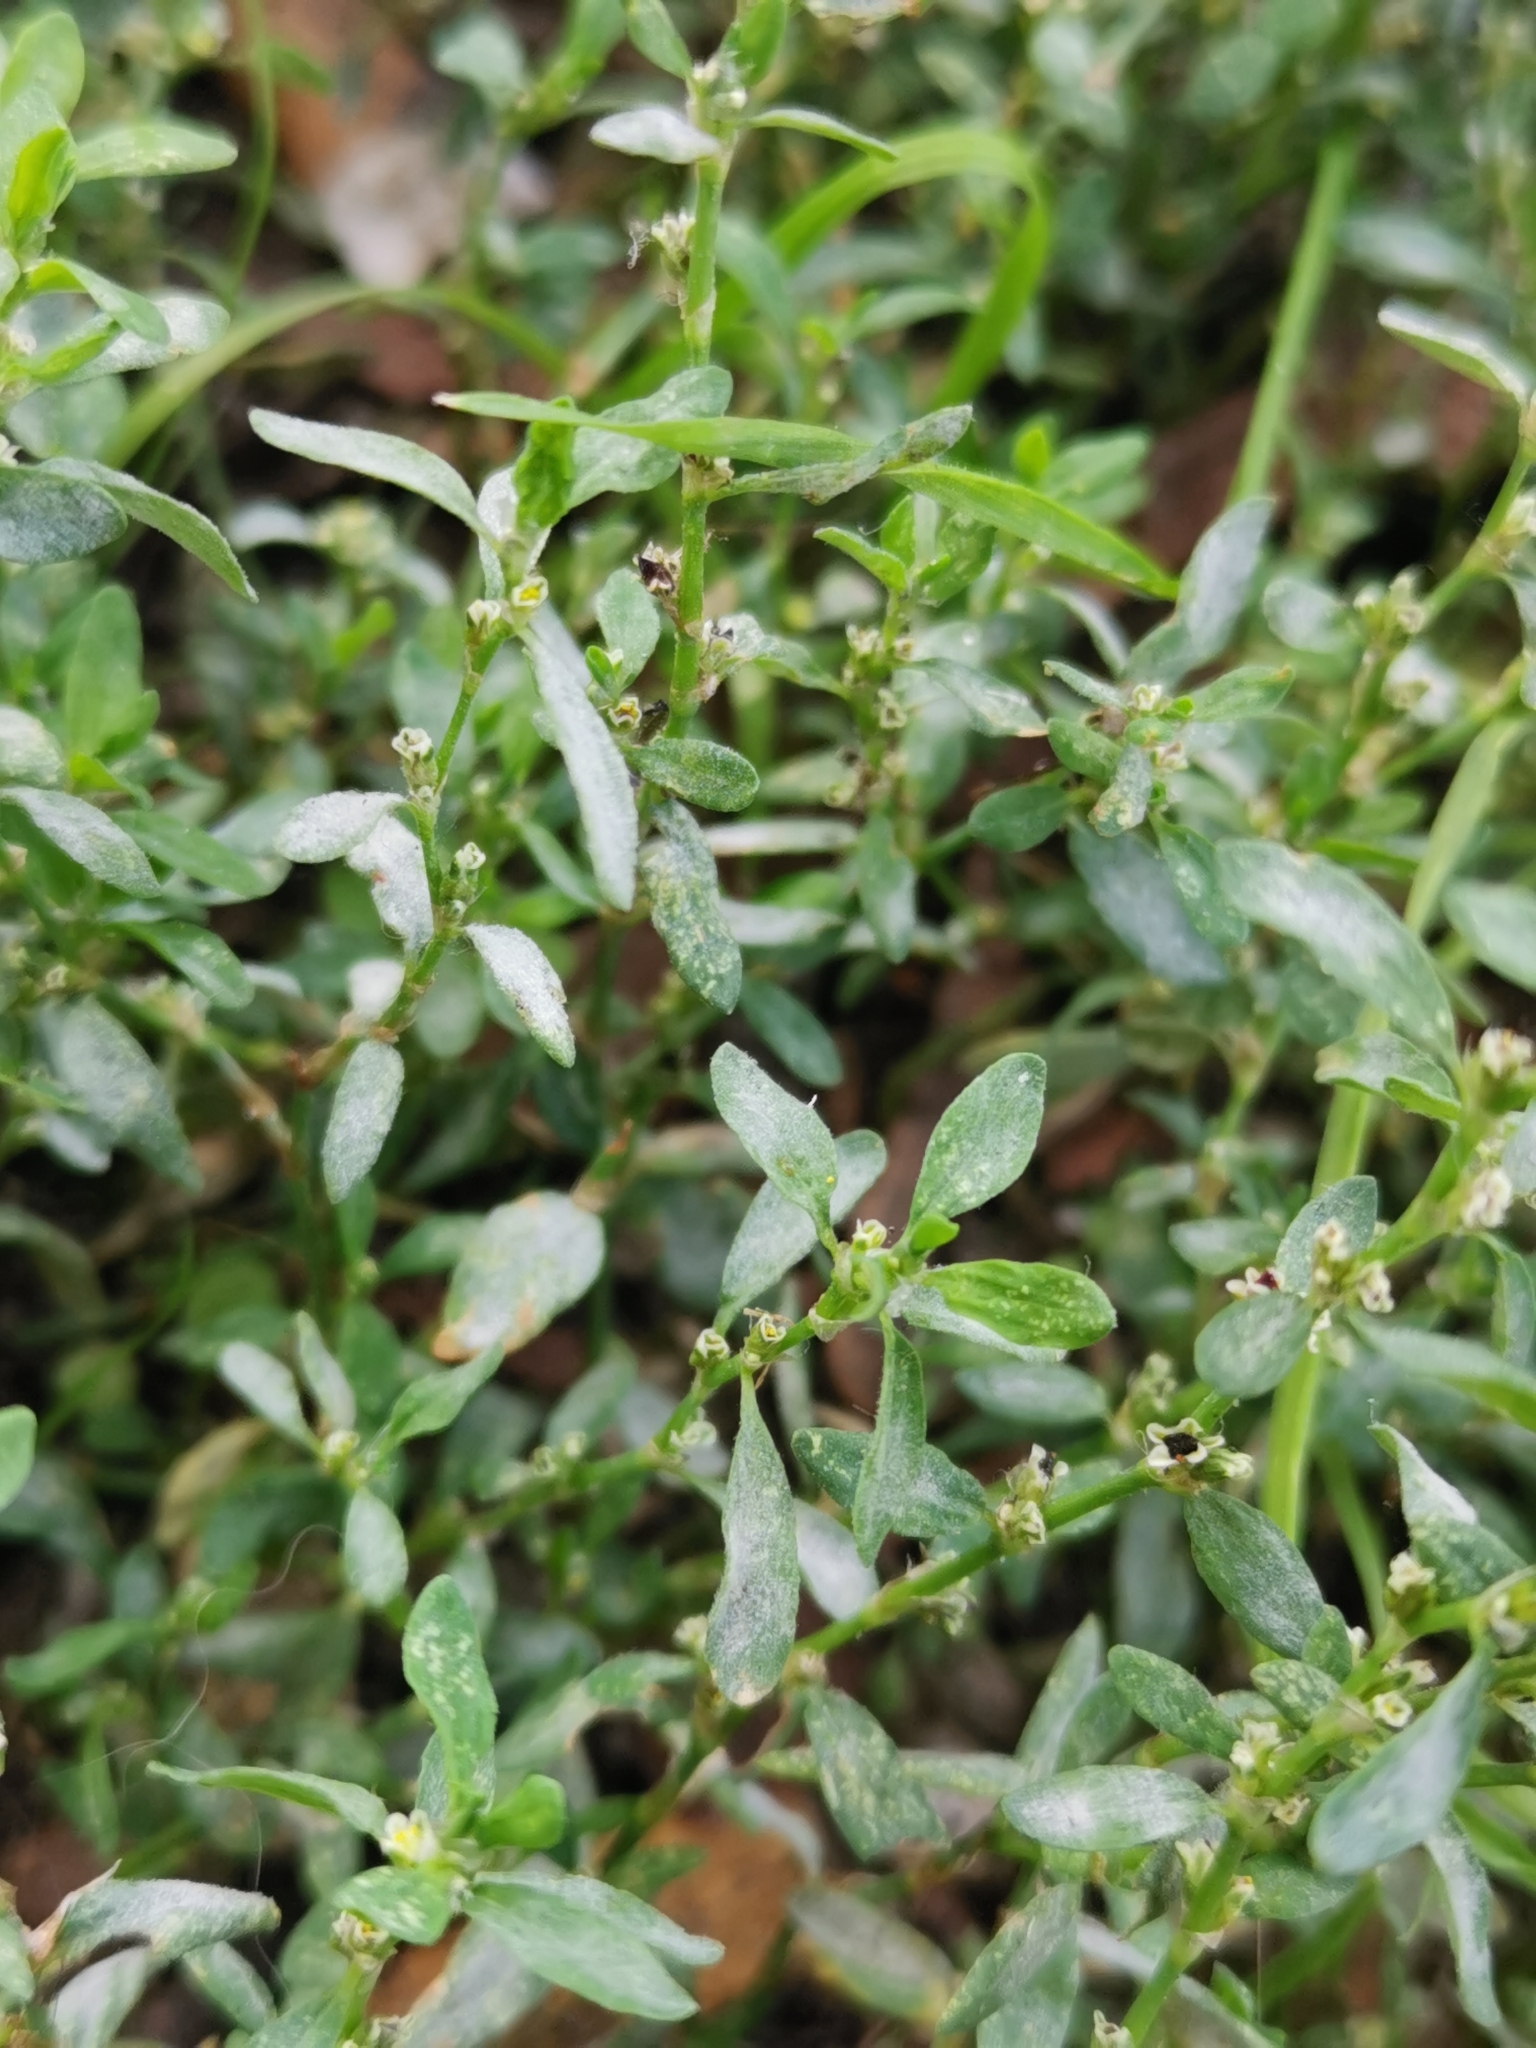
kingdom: Fungi
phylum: Ascomycota
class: Leotiomycetes
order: Helotiales
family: Erysiphaceae
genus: Erysiphe
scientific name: Erysiphe polygoni
